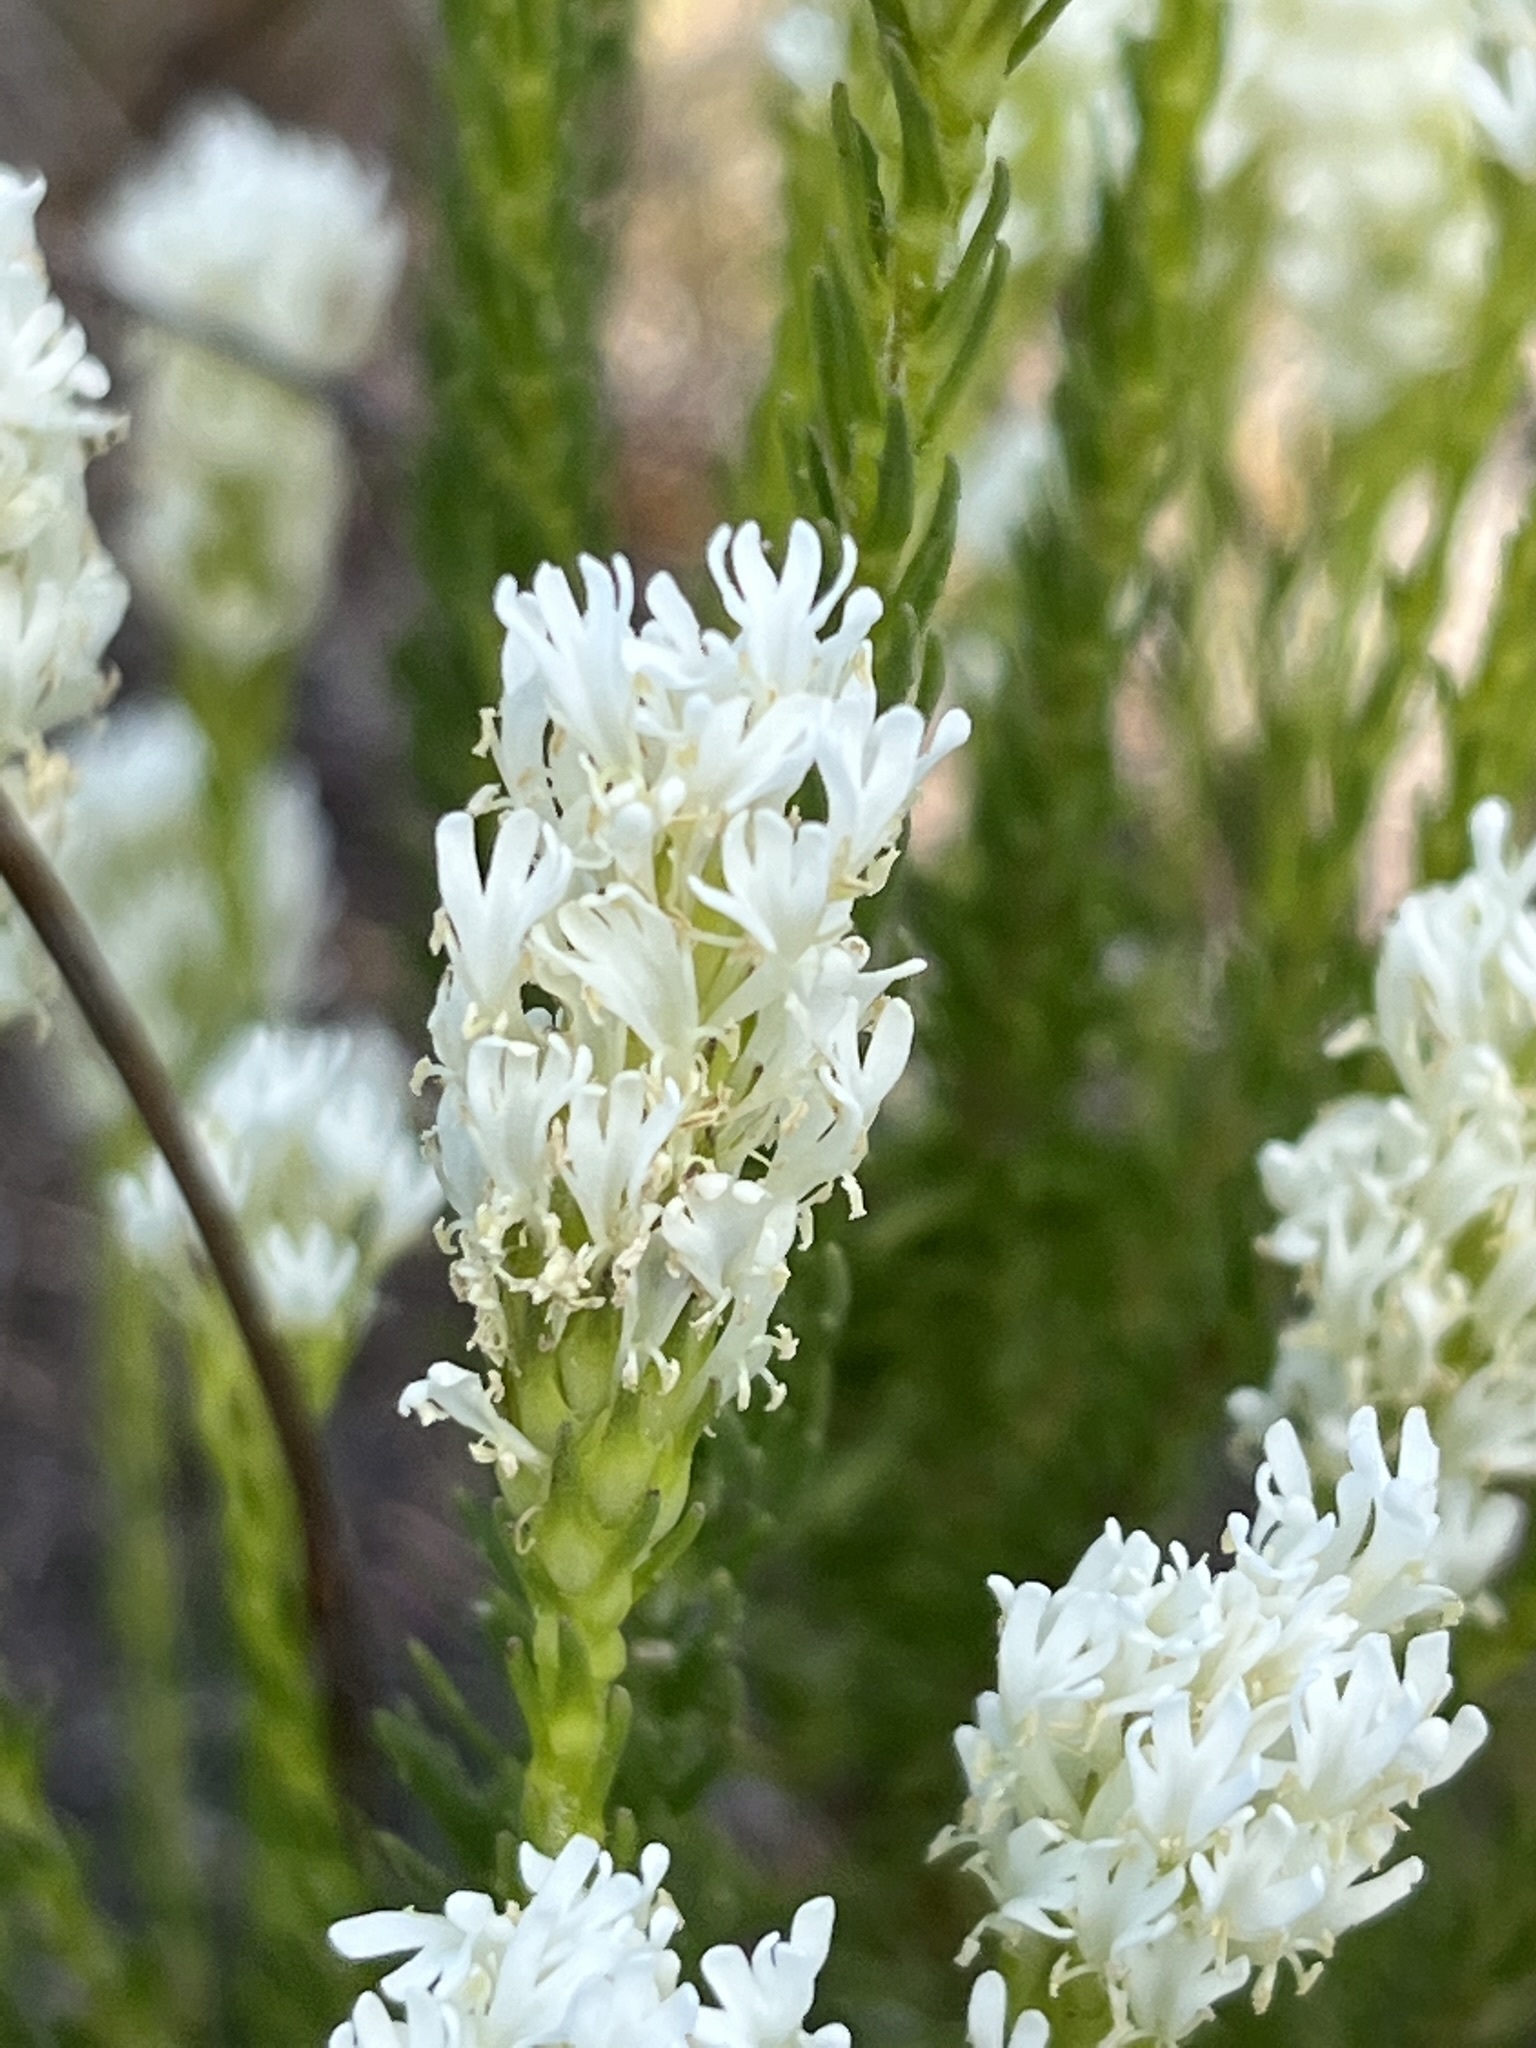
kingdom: Plantae
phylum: Tracheophyta
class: Magnoliopsida
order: Lamiales
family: Scrophulariaceae
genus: Dischisma
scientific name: Dischisma ciliatum
